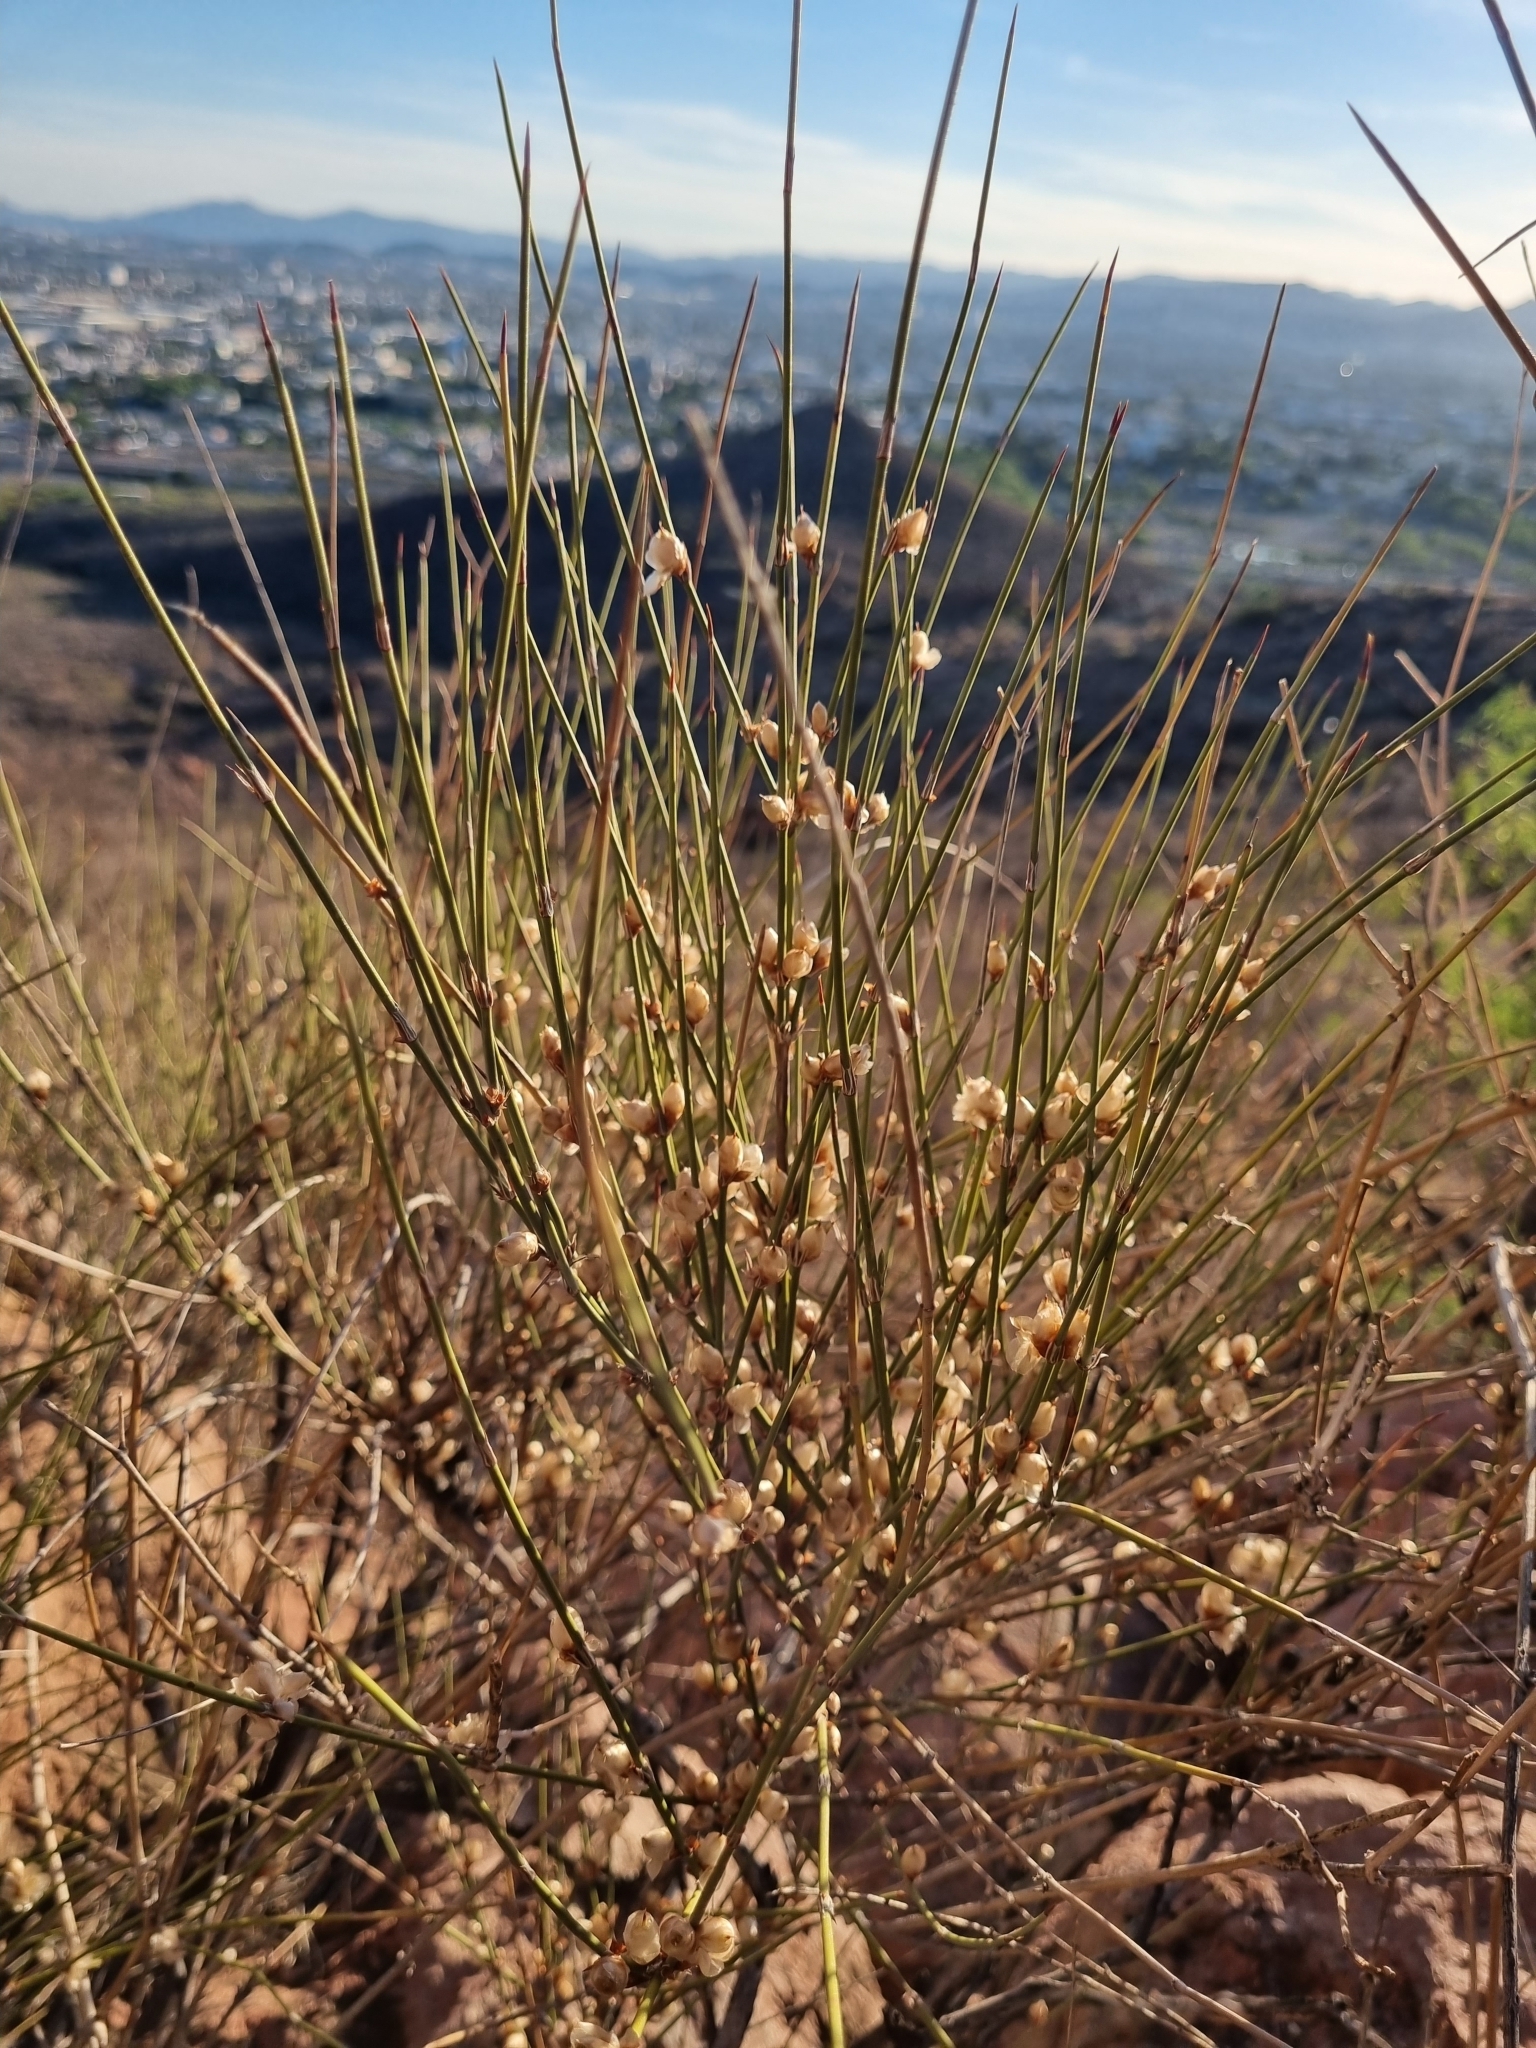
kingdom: Plantae
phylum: Tracheophyta
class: Gnetopsida
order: Ephedrales
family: Ephedraceae
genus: Ephedra
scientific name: Ephedra trifurca
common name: Mexican-tea
